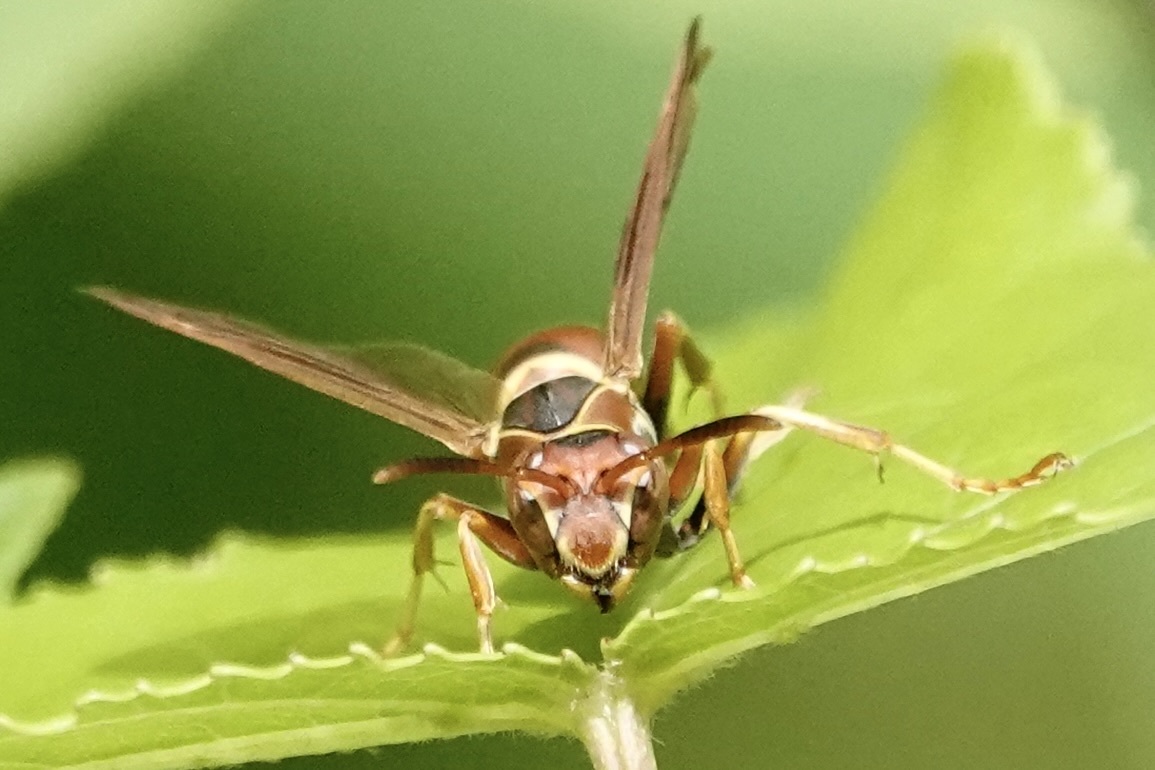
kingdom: Animalia
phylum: Arthropoda
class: Insecta
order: Hymenoptera
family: Eumenidae
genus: Polistes
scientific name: Polistes dorsalis
